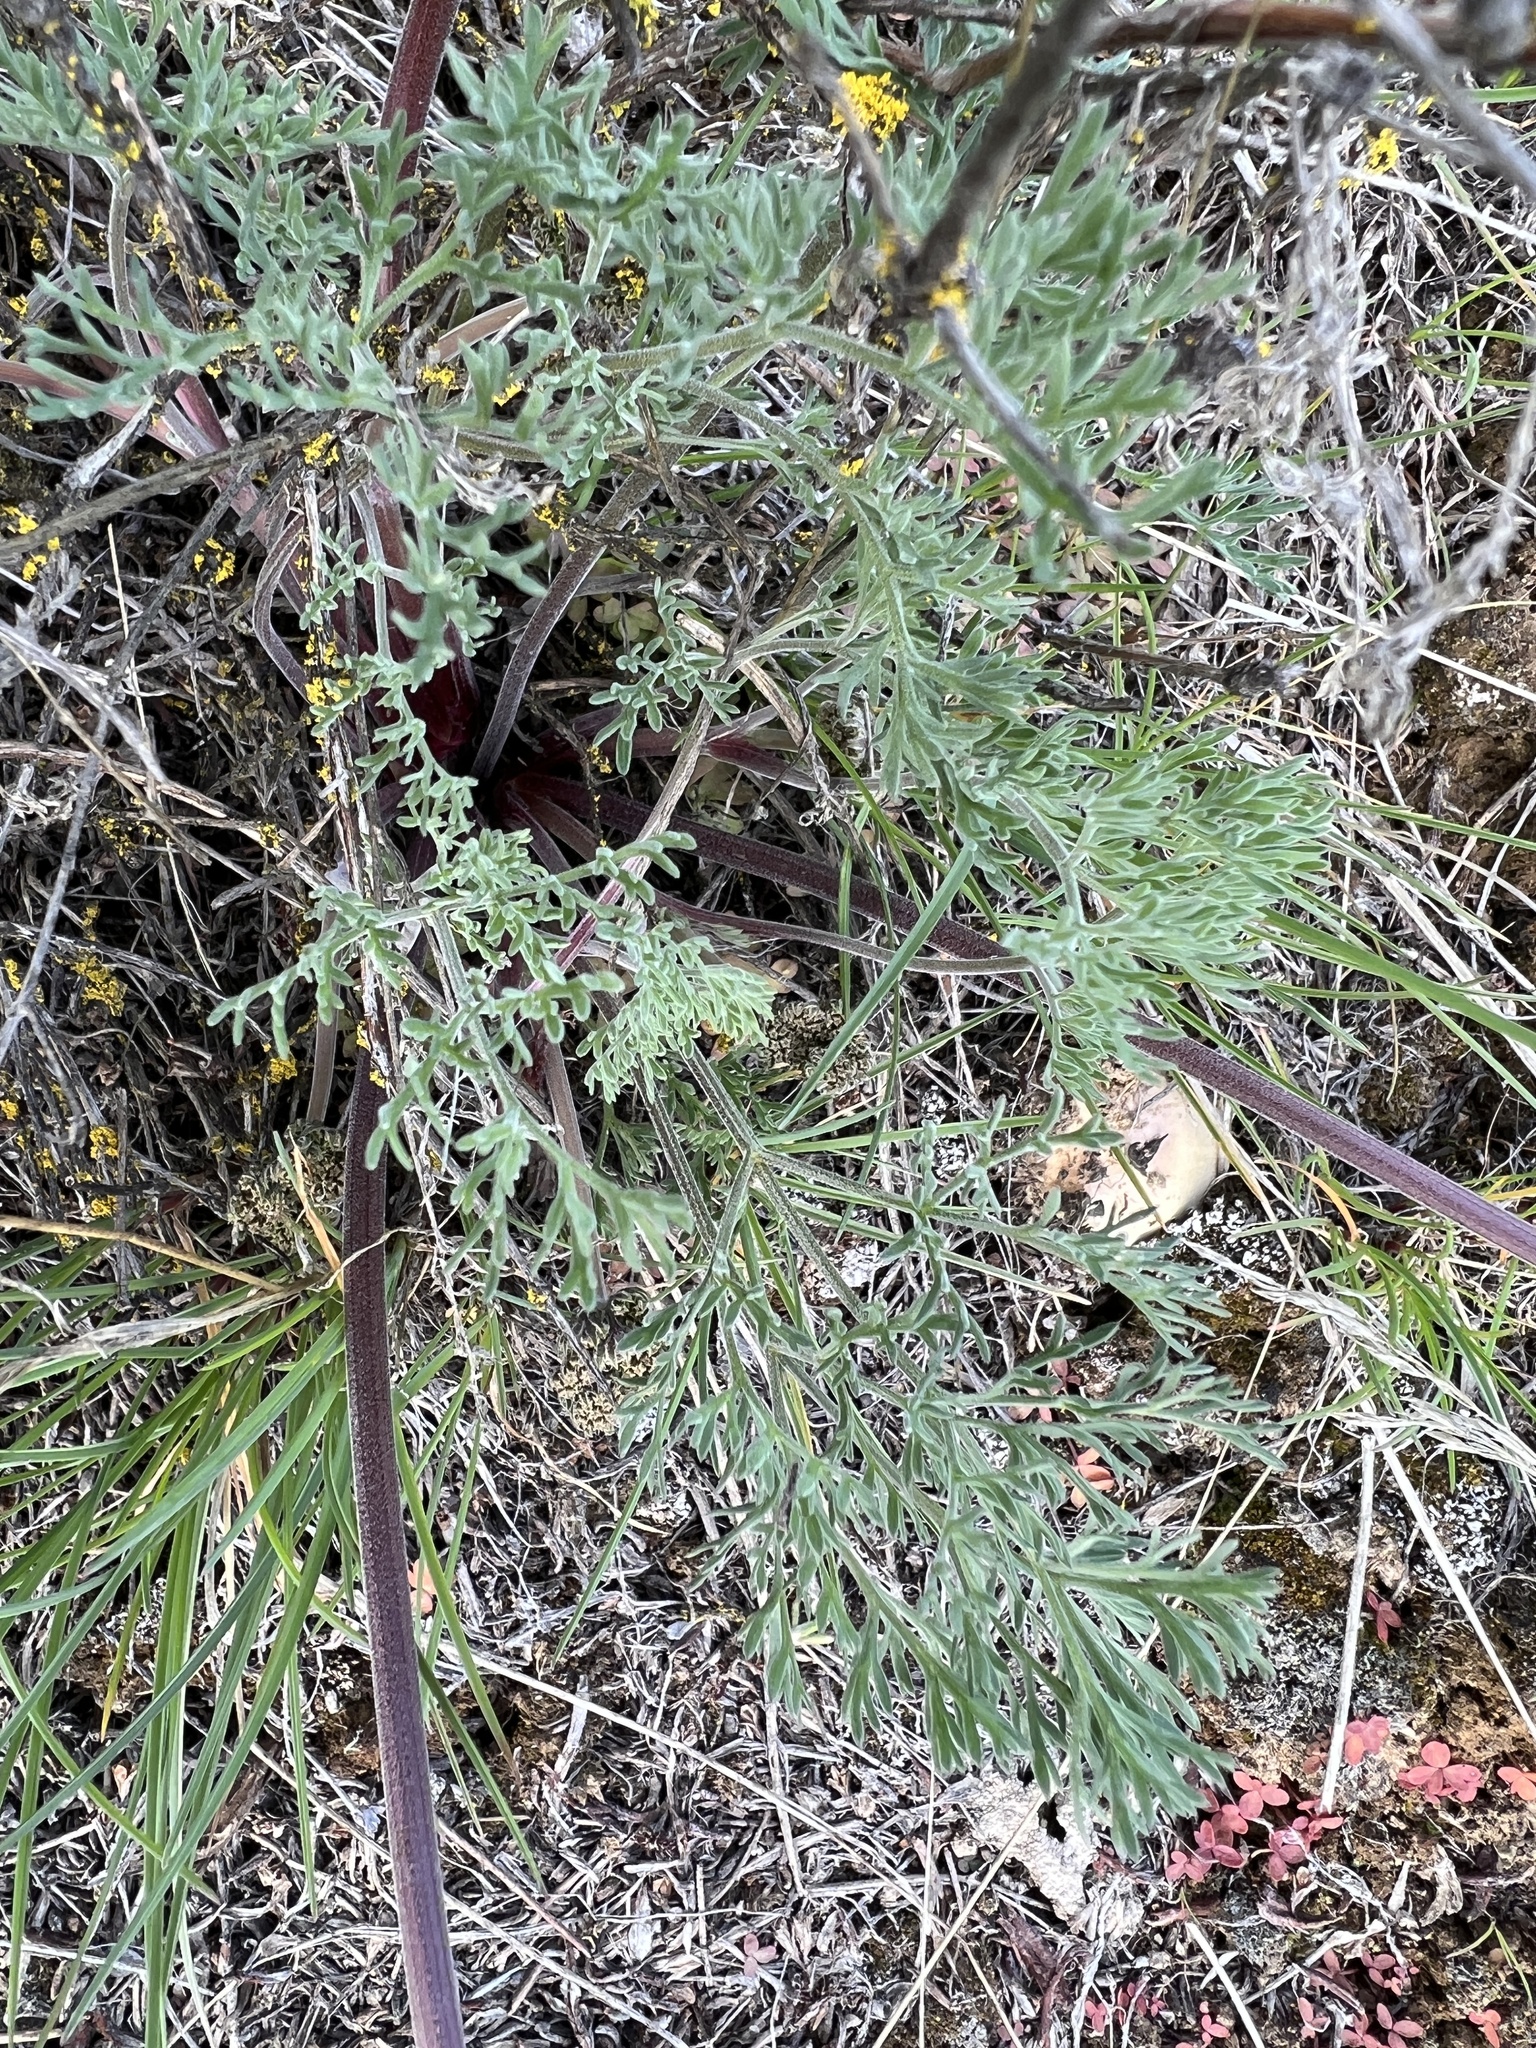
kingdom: Plantae
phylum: Tracheophyta
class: Magnoliopsida
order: Apiales
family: Apiaceae
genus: Lomatium
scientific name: Lomatium macrocarpum
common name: Big-seed biscuitroot
